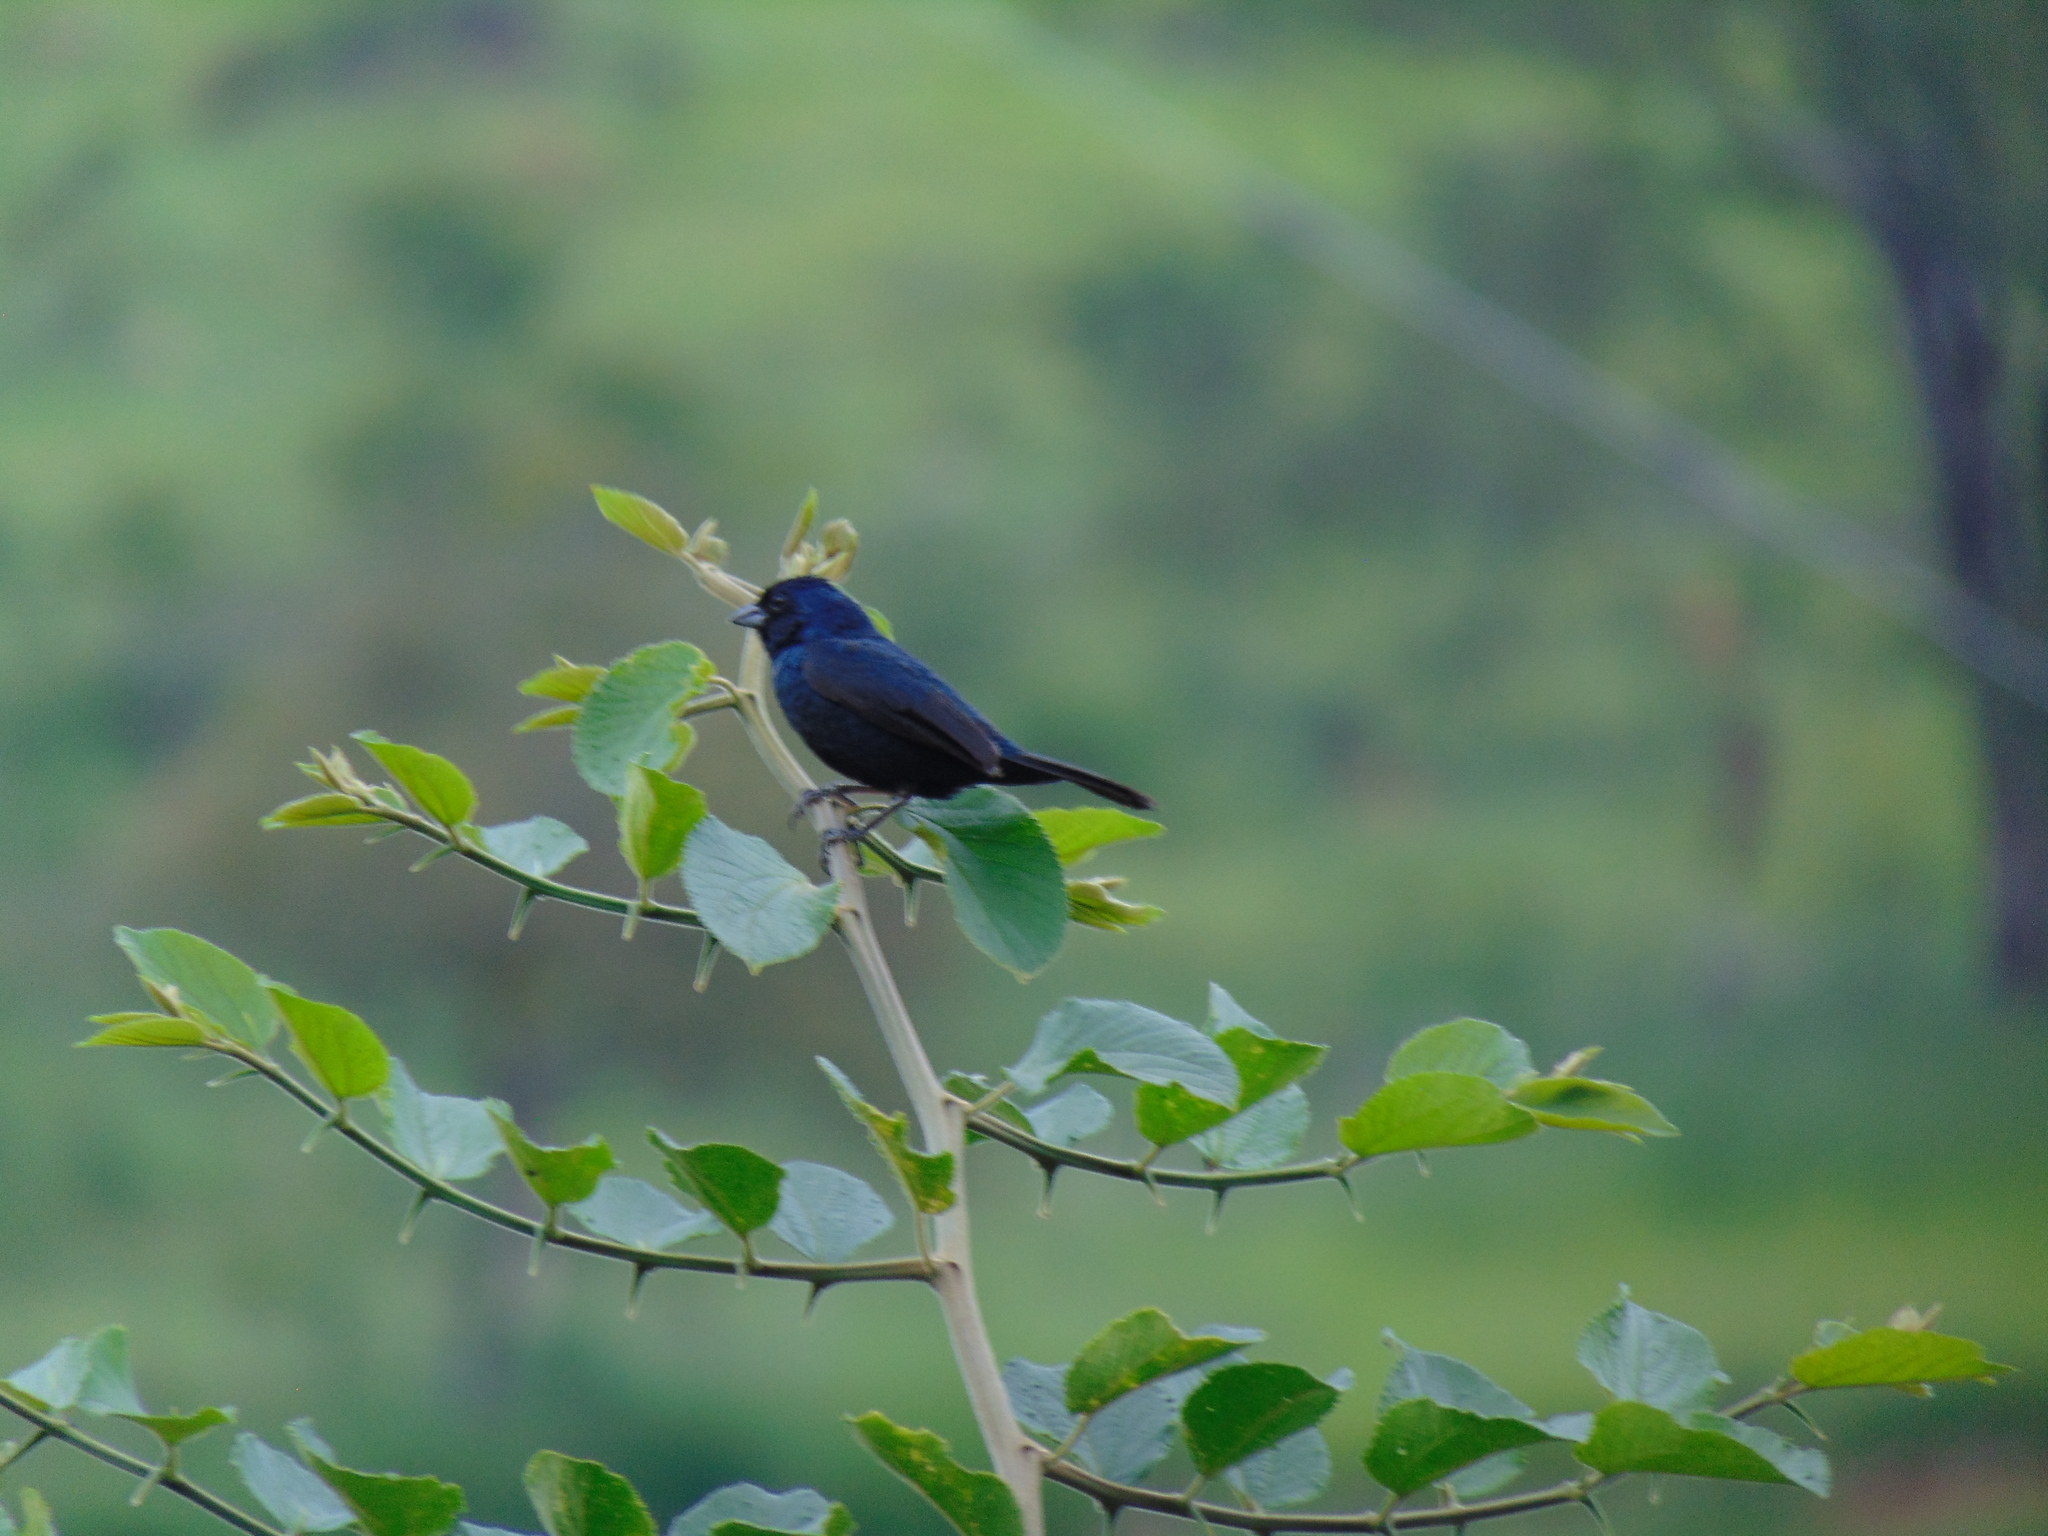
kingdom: Animalia
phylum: Chordata
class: Aves
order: Passeriformes
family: Thraupidae
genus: Volatinia
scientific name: Volatinia jacarina
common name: Blue-black grassquit
